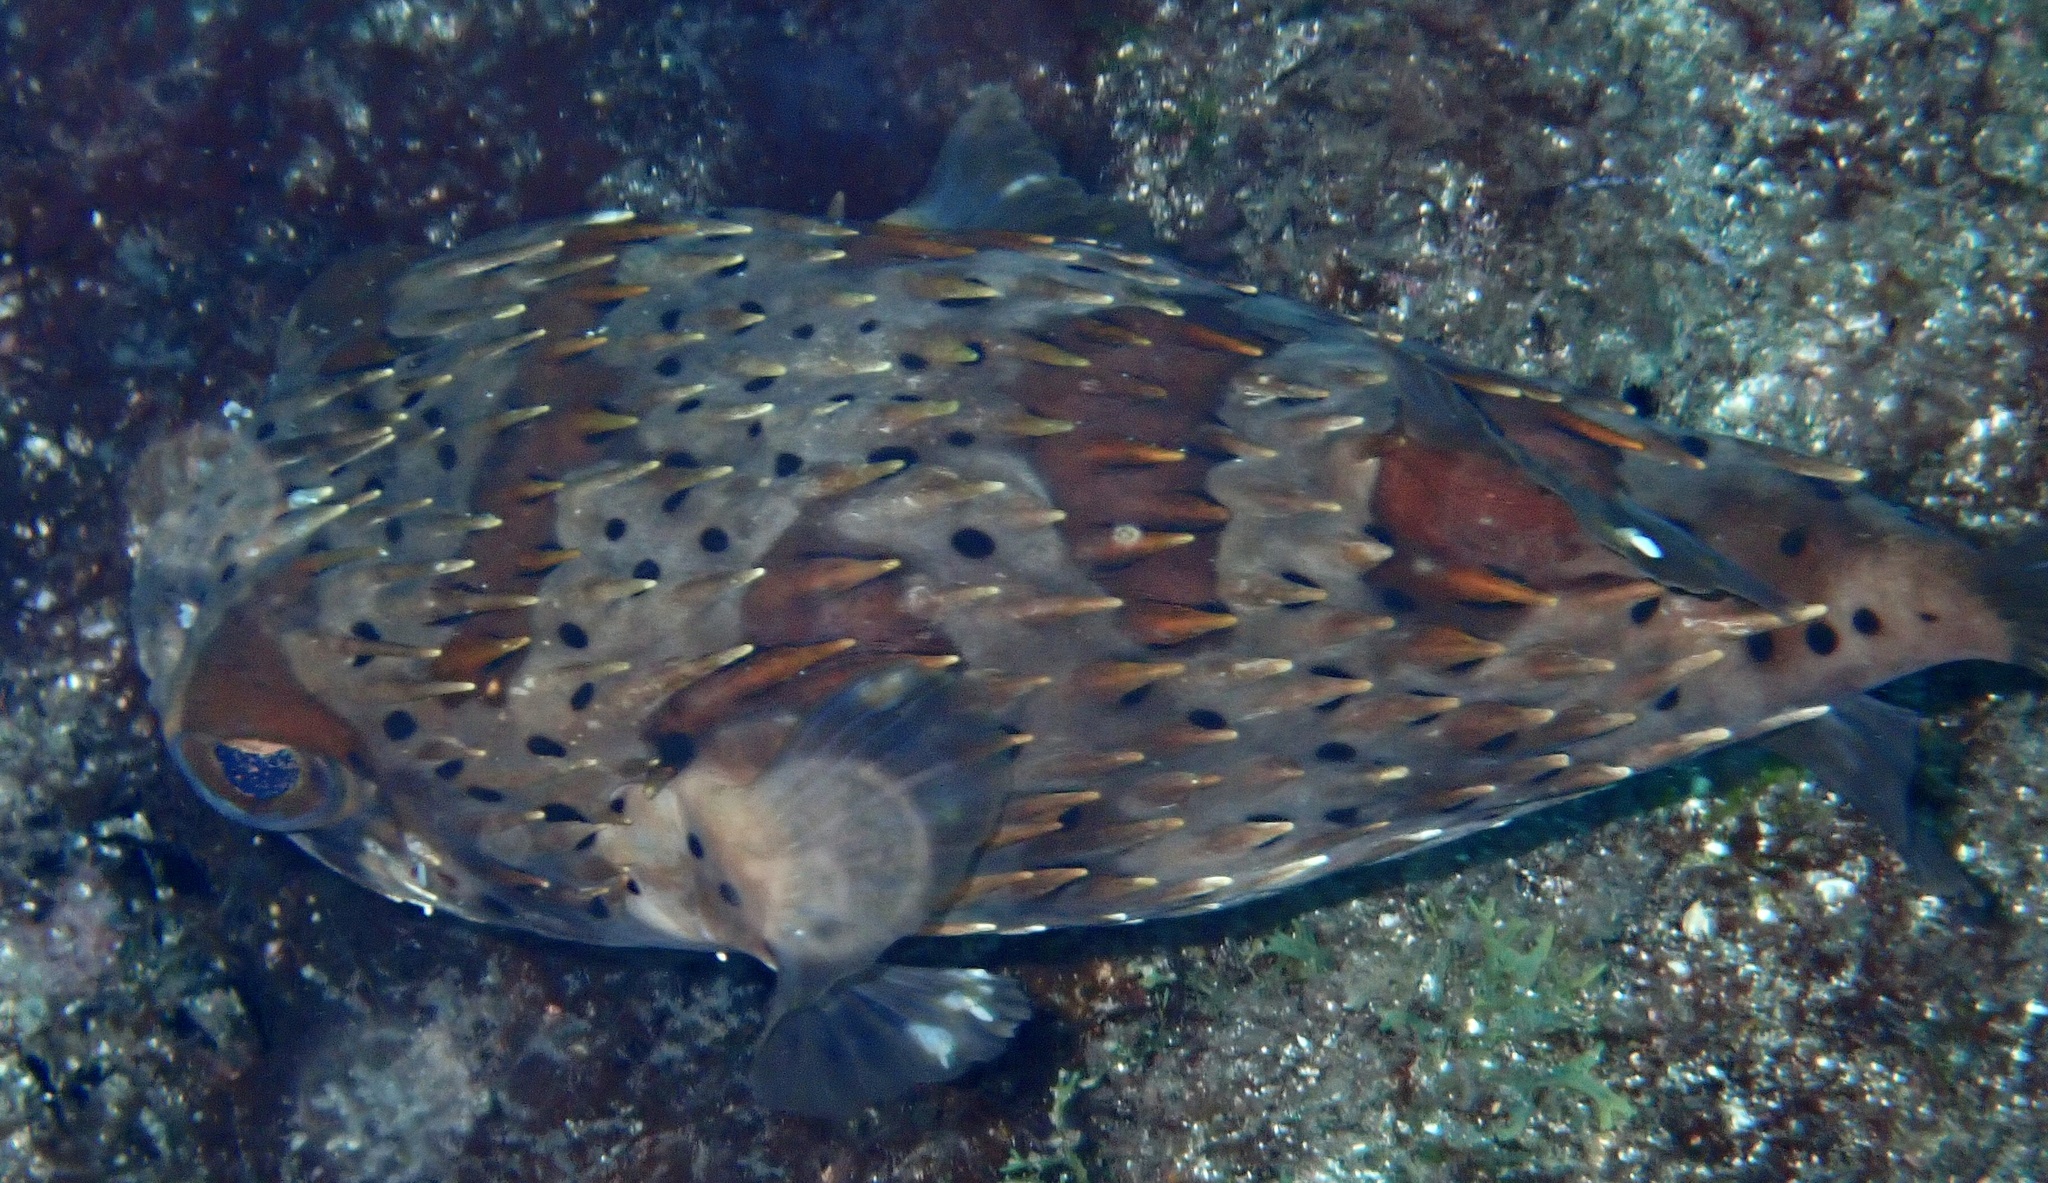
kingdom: Animalia
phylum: Chordata
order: Tetraodontiformes
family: Diodontidae
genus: Diodon
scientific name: Diodon holocanthus
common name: Balloonfish
